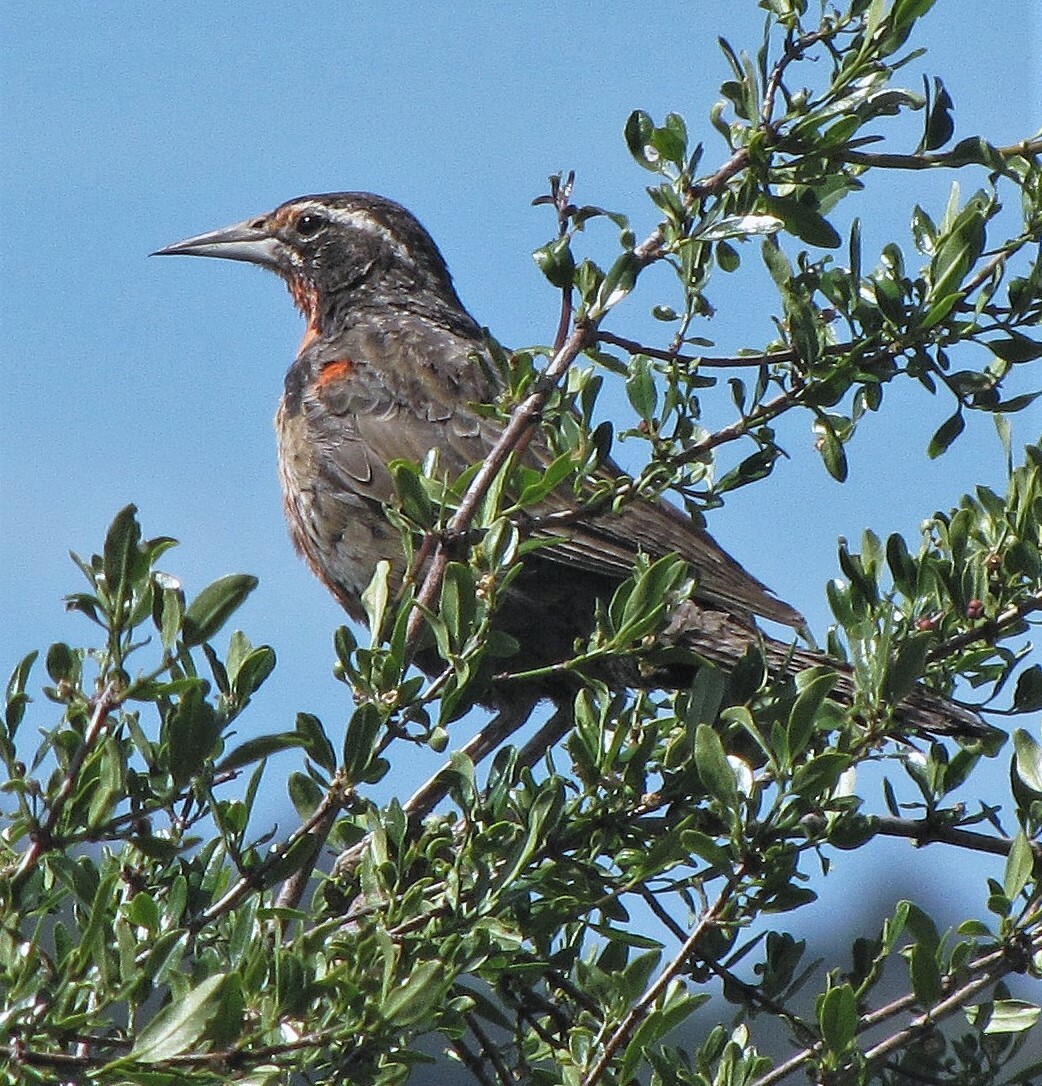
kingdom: Animalia
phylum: Chordata
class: Aves
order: Passeriformes
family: Icteridae
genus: Sturnella
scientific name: Sturnella loyca
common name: Long-tailed meadowlark
